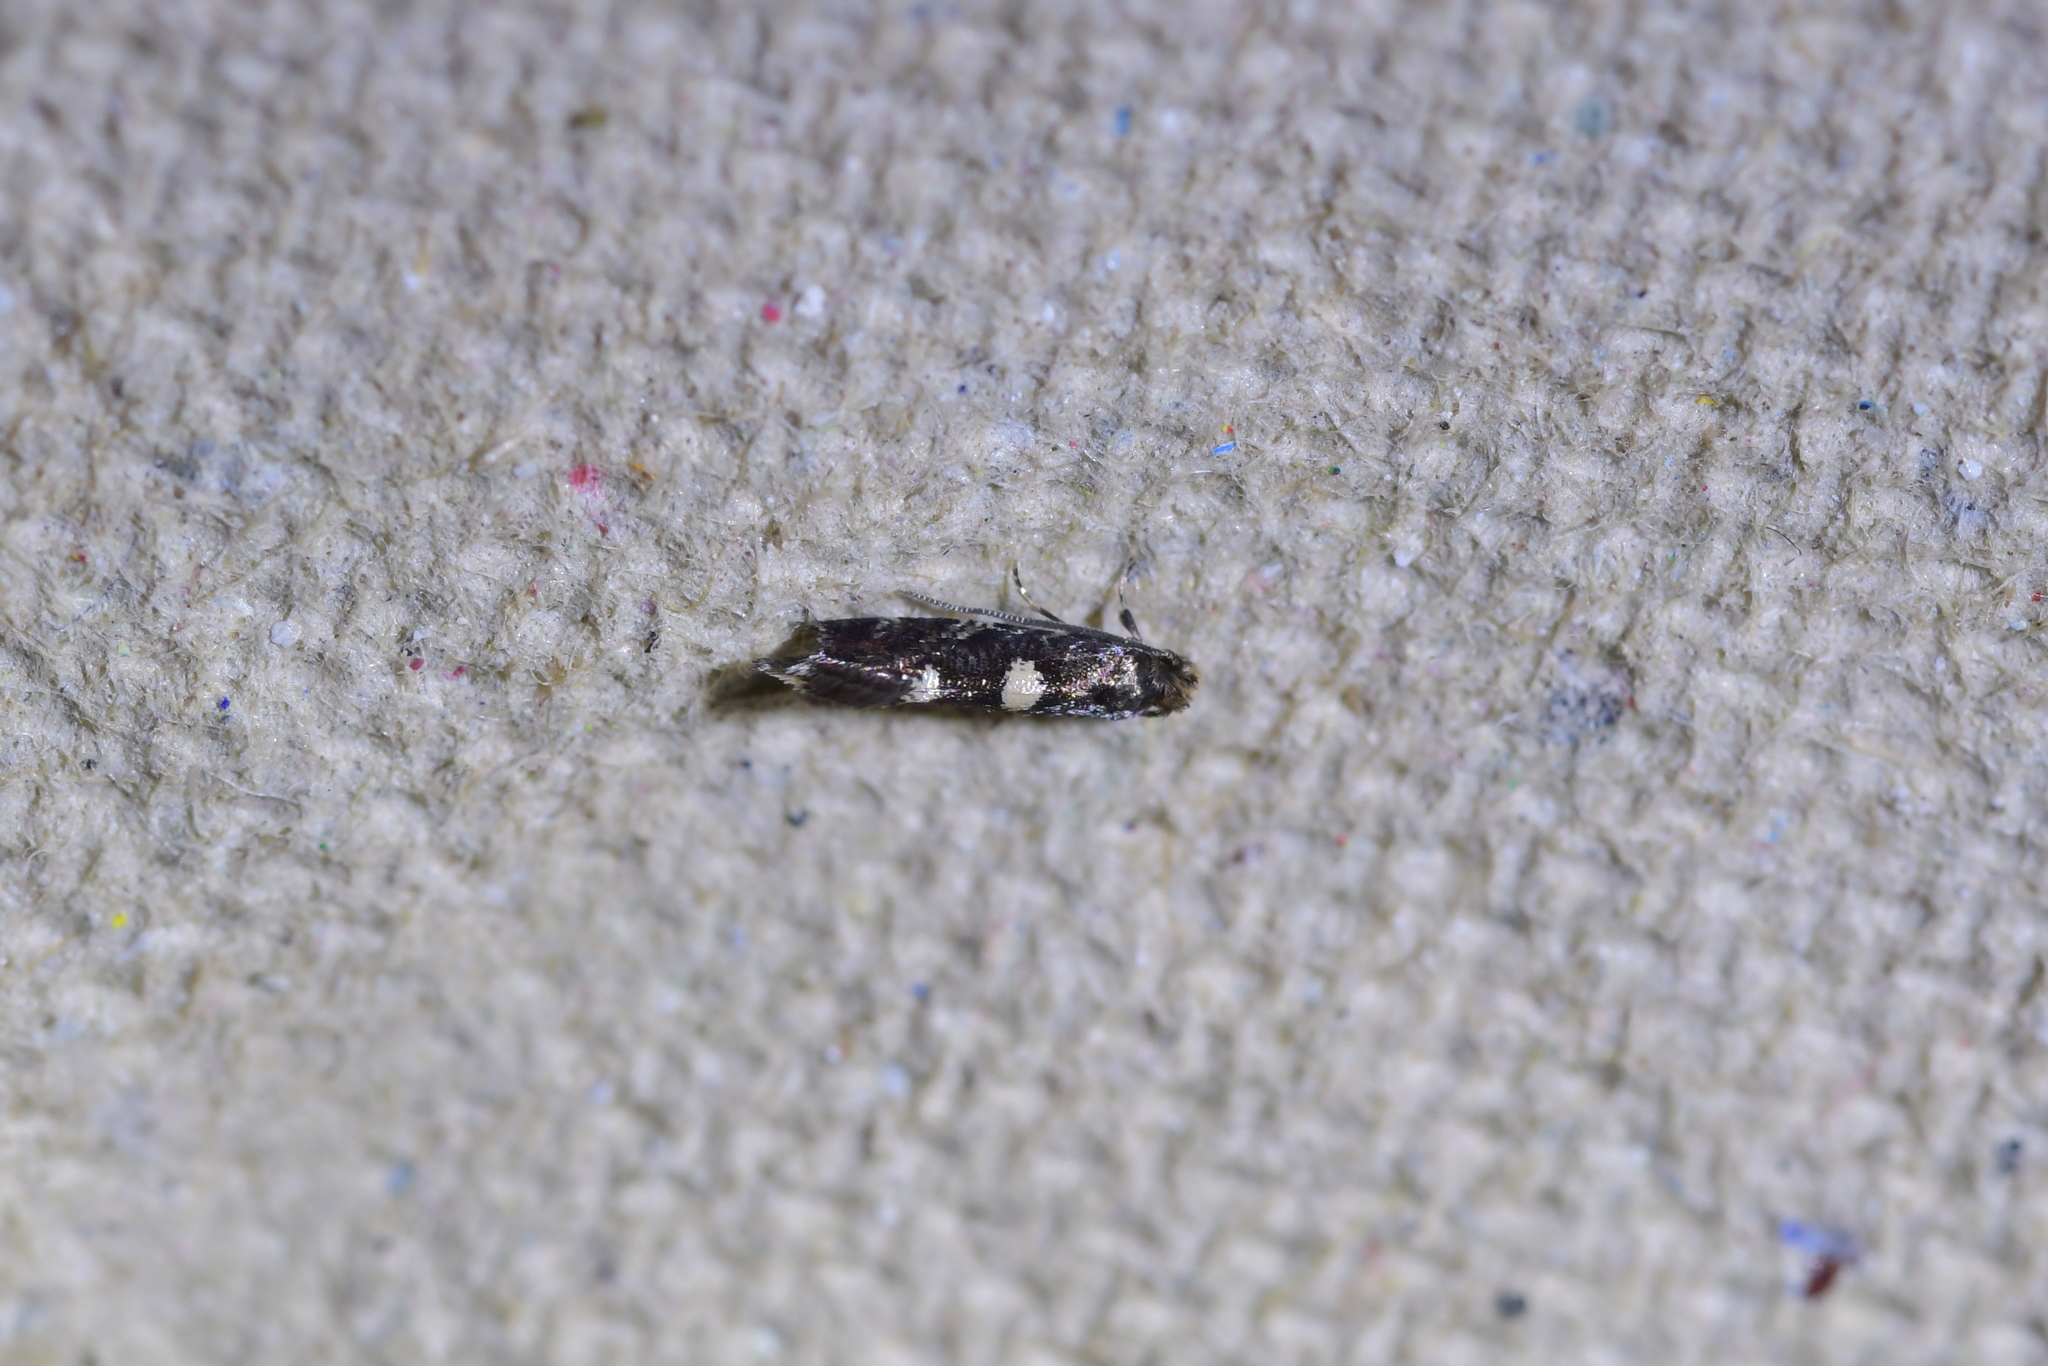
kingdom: Animalia
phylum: Arthropoda
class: Insecta
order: Lepidoptera
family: Tineidae
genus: Tinea
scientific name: Tinea argodelta
